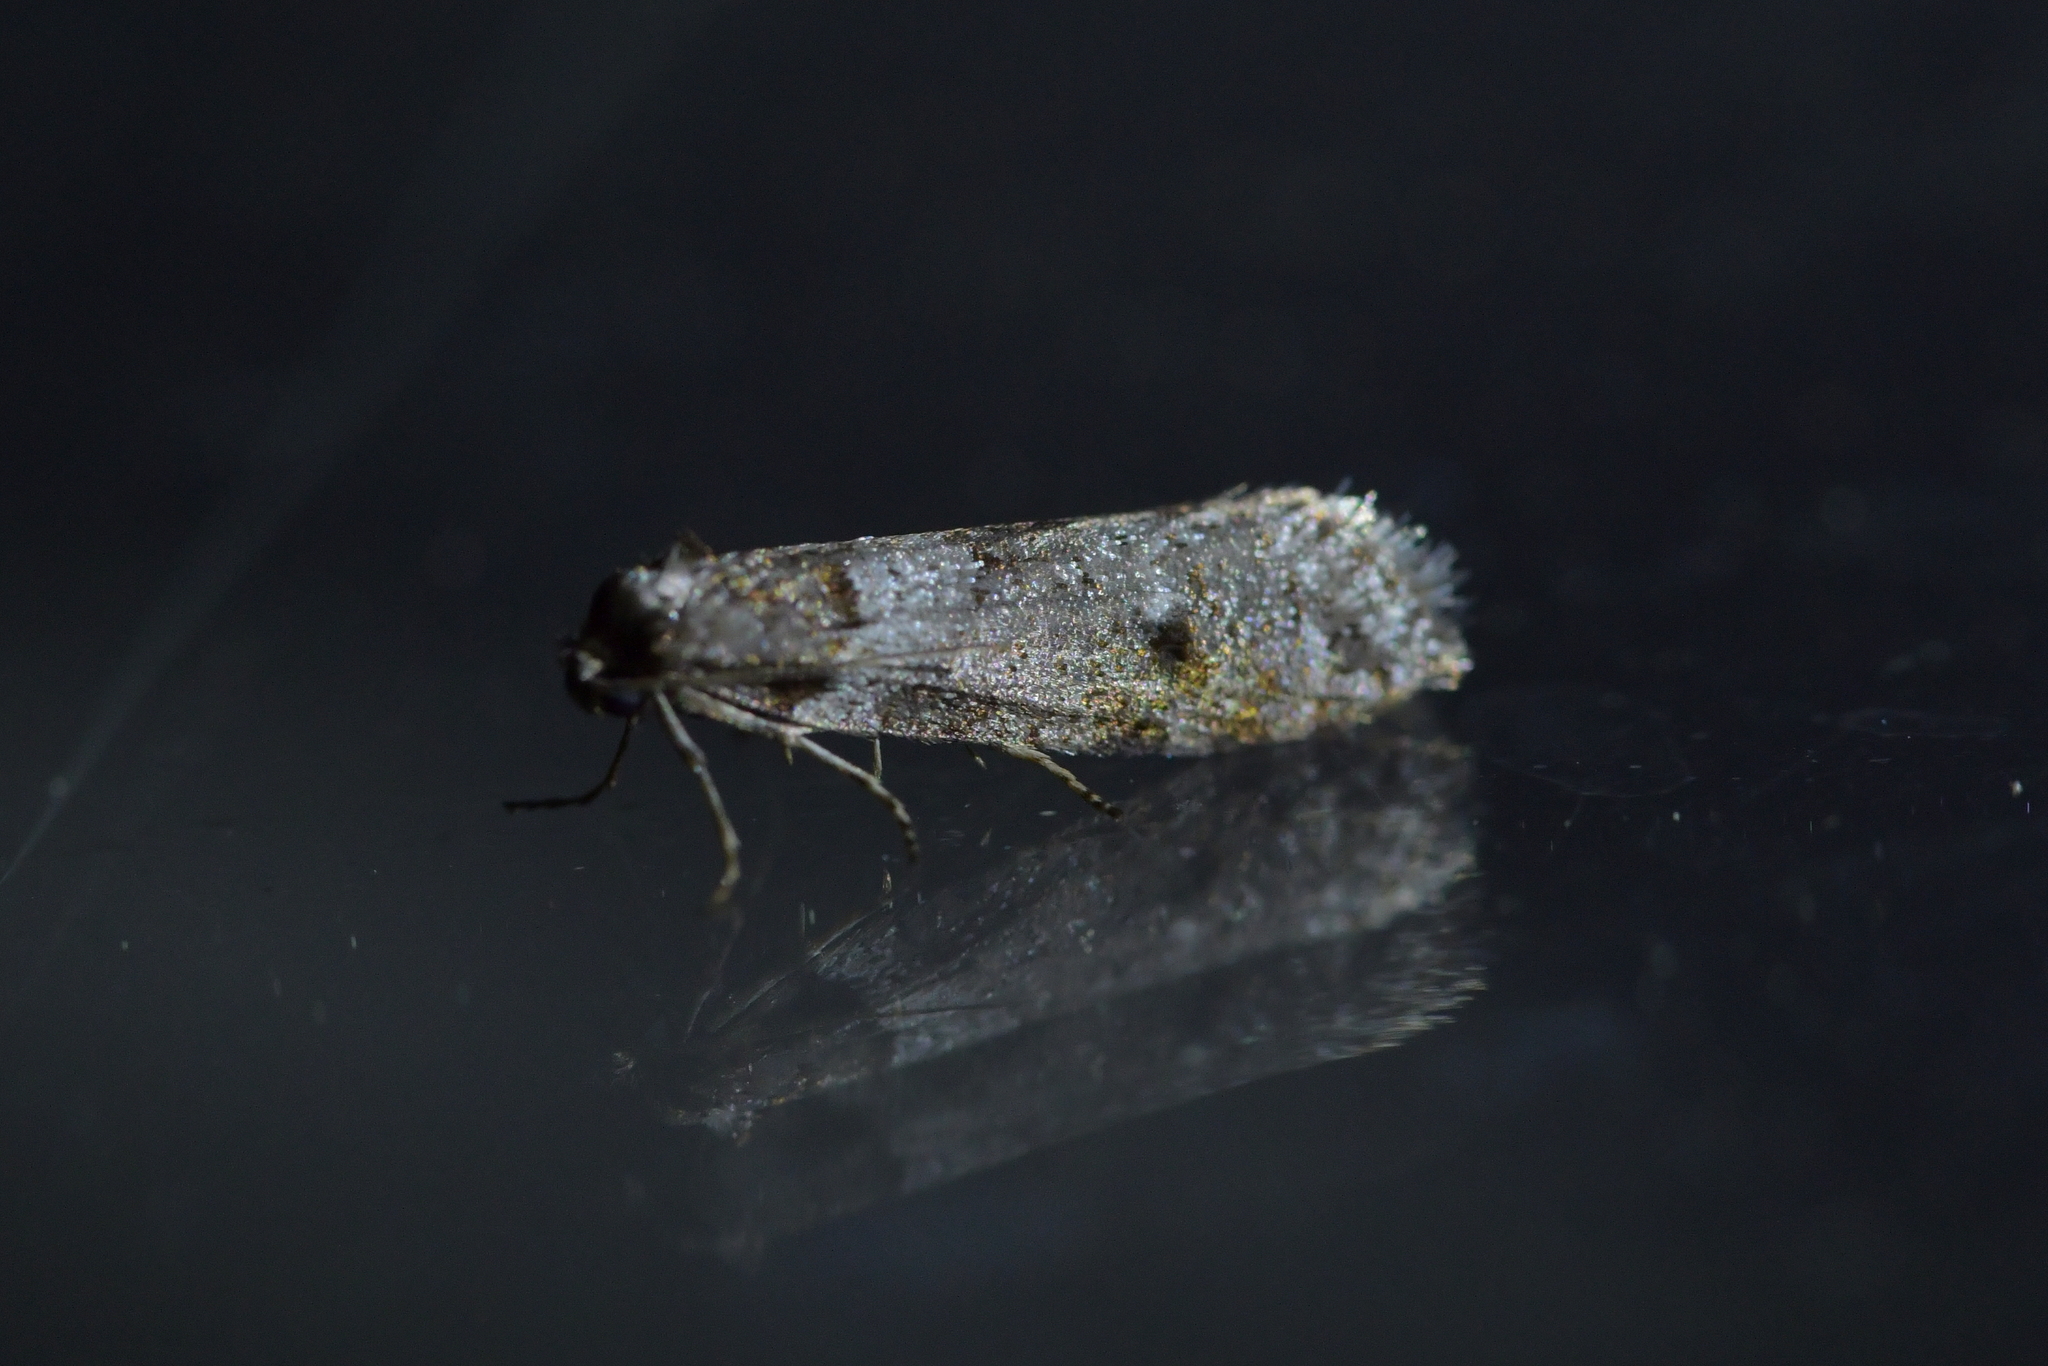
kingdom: Animalia
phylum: Arthropoda
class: Insecta
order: Lepidoptera
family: Psychidae
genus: Lepidoscia
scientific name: Lepidoscia heliochares
